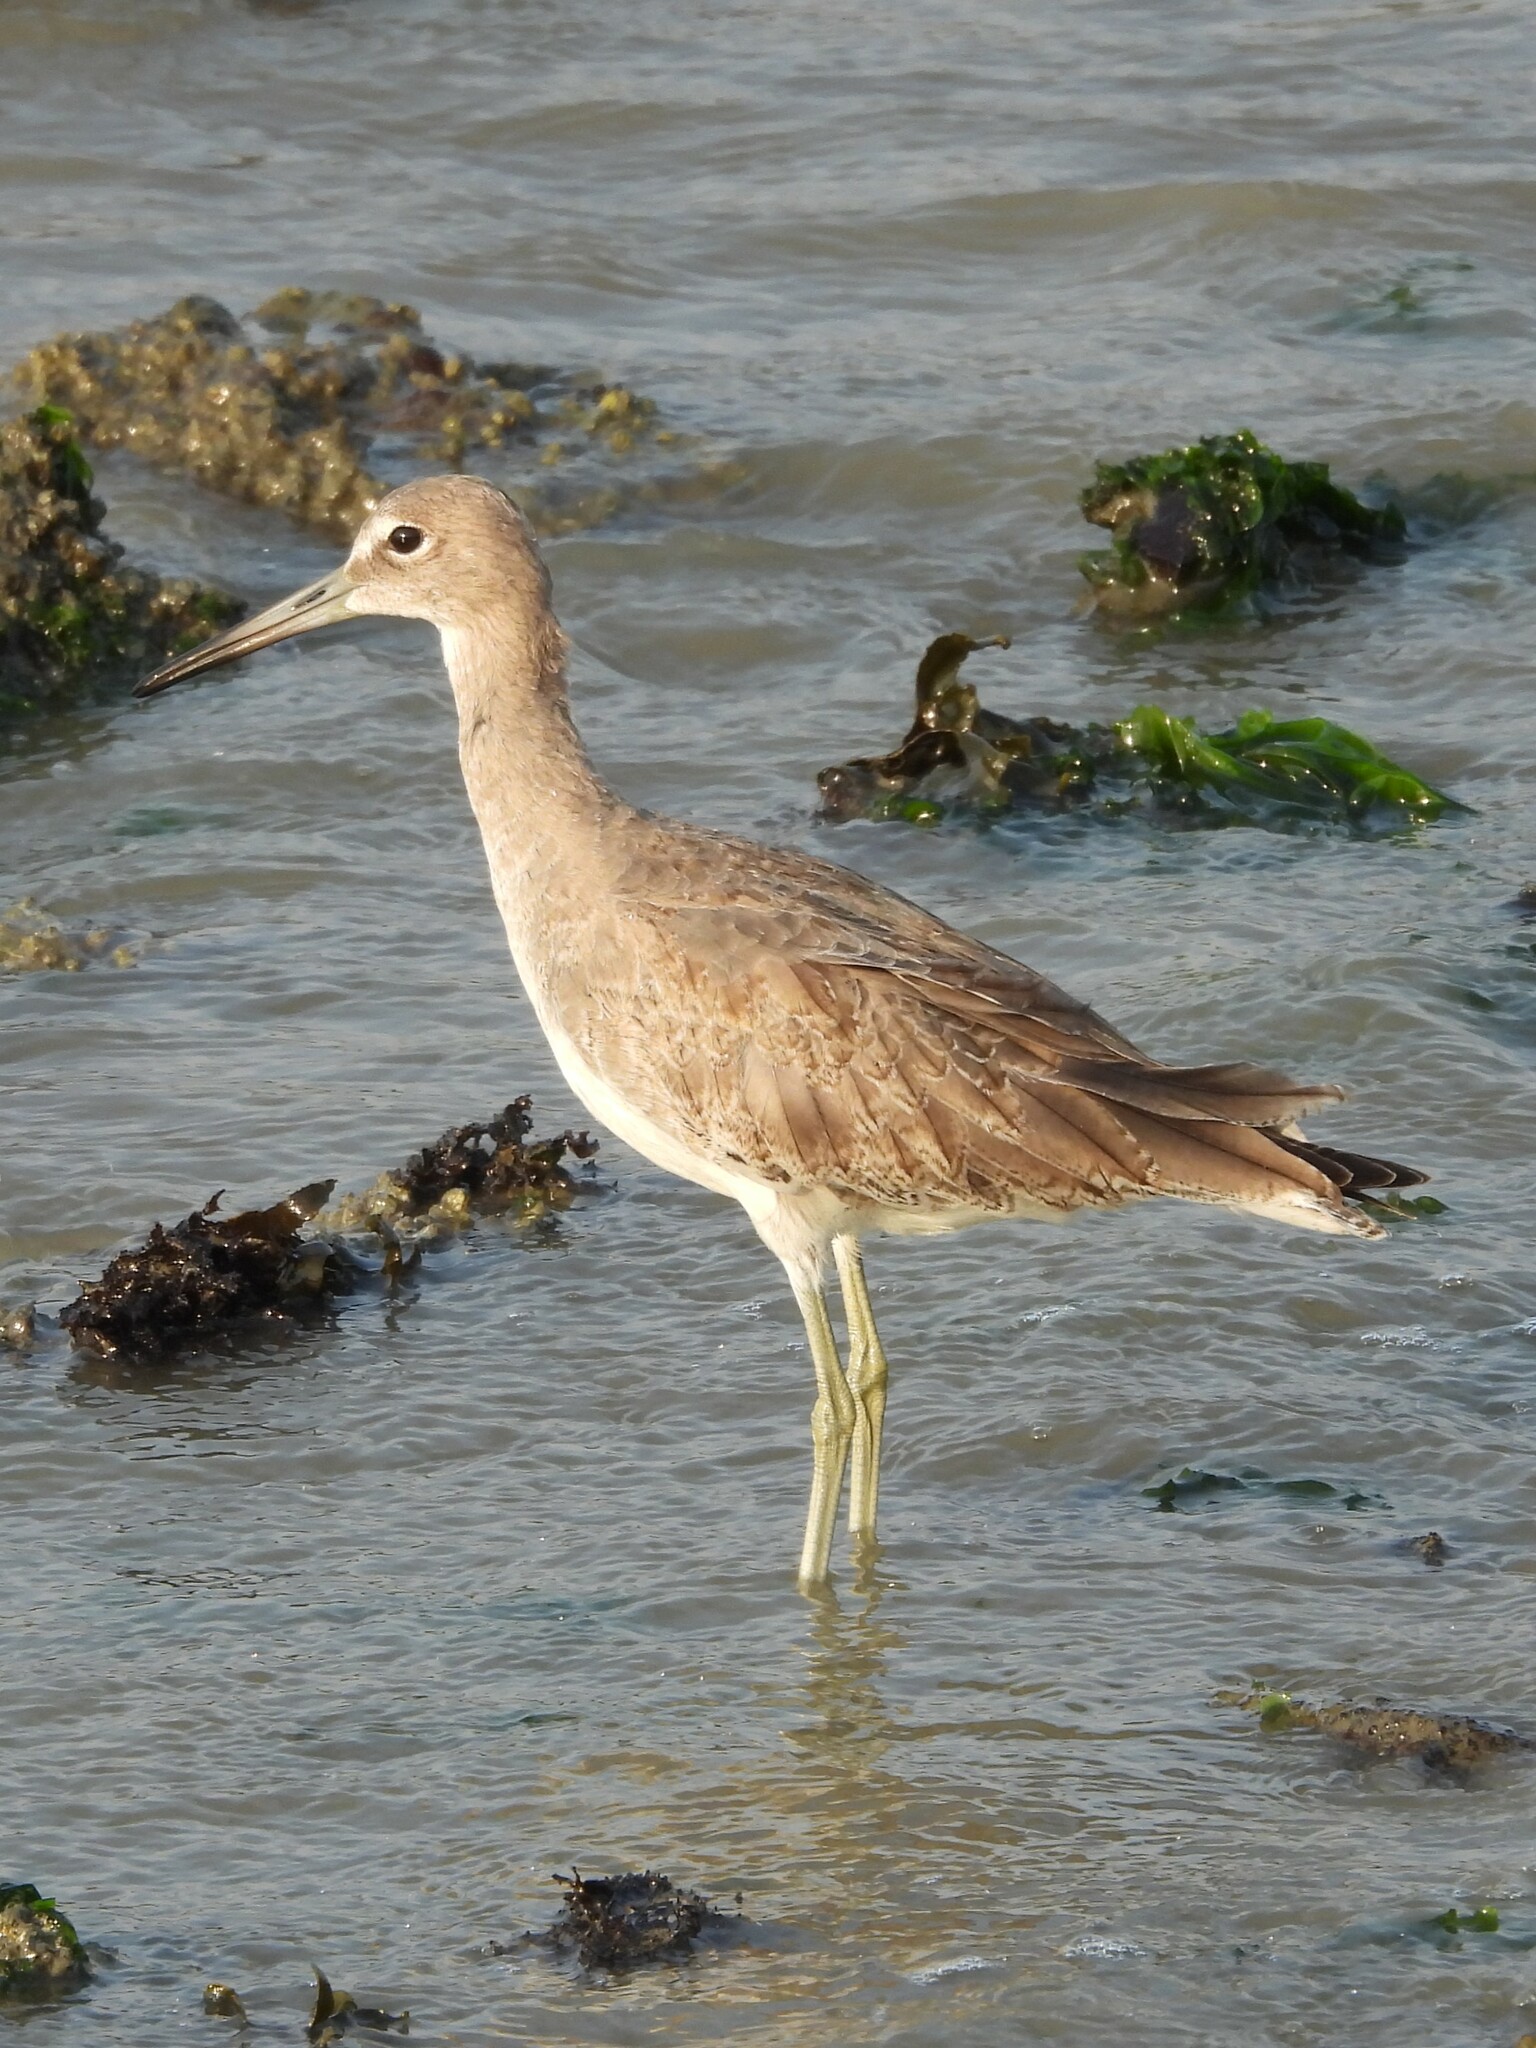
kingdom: Animalia
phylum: Chordata
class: Aves
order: Charadriiformes
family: Scolopacidae
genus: Tringa
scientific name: Tringa semipalmata
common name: Willet
